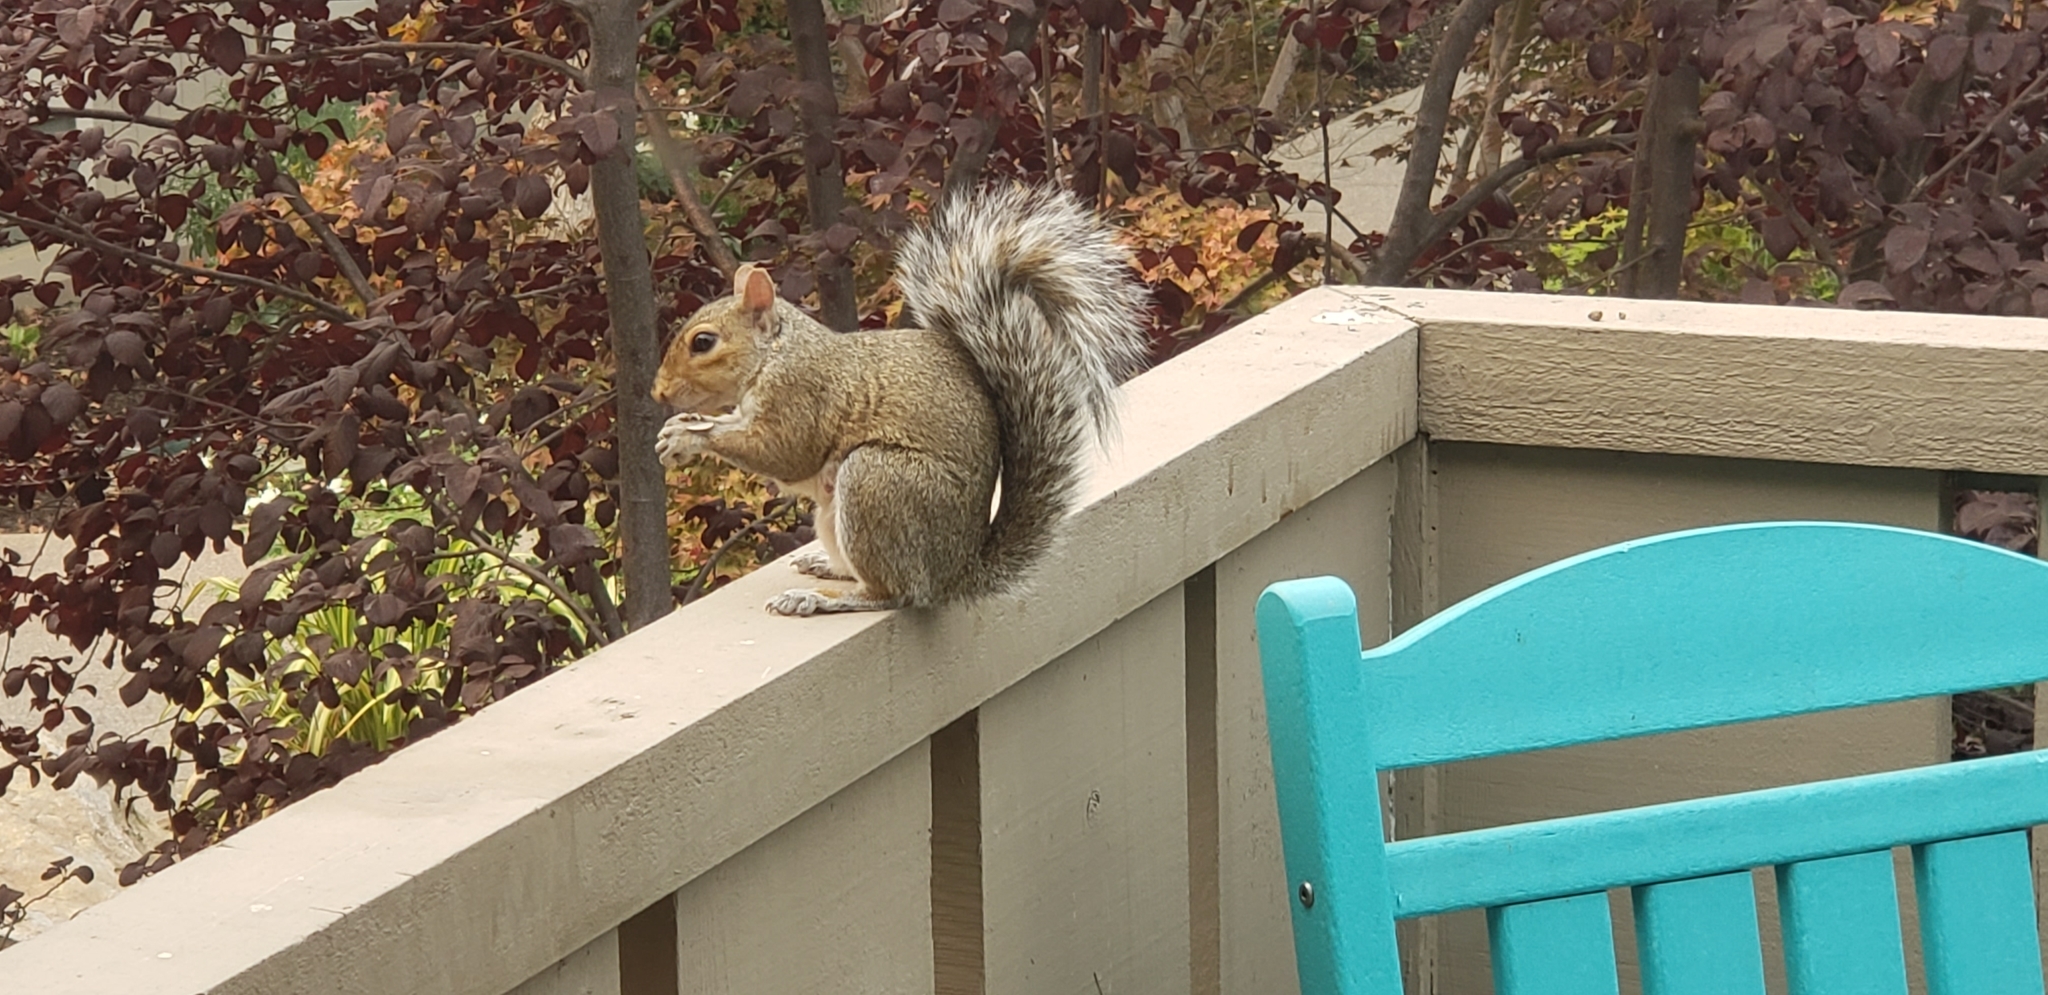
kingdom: Animalia
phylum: Chordata
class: Mammalia
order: Rodentia
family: Sciuridae
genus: Sciurus
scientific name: Sciurus carolinensis
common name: Eastern gray squirrel
